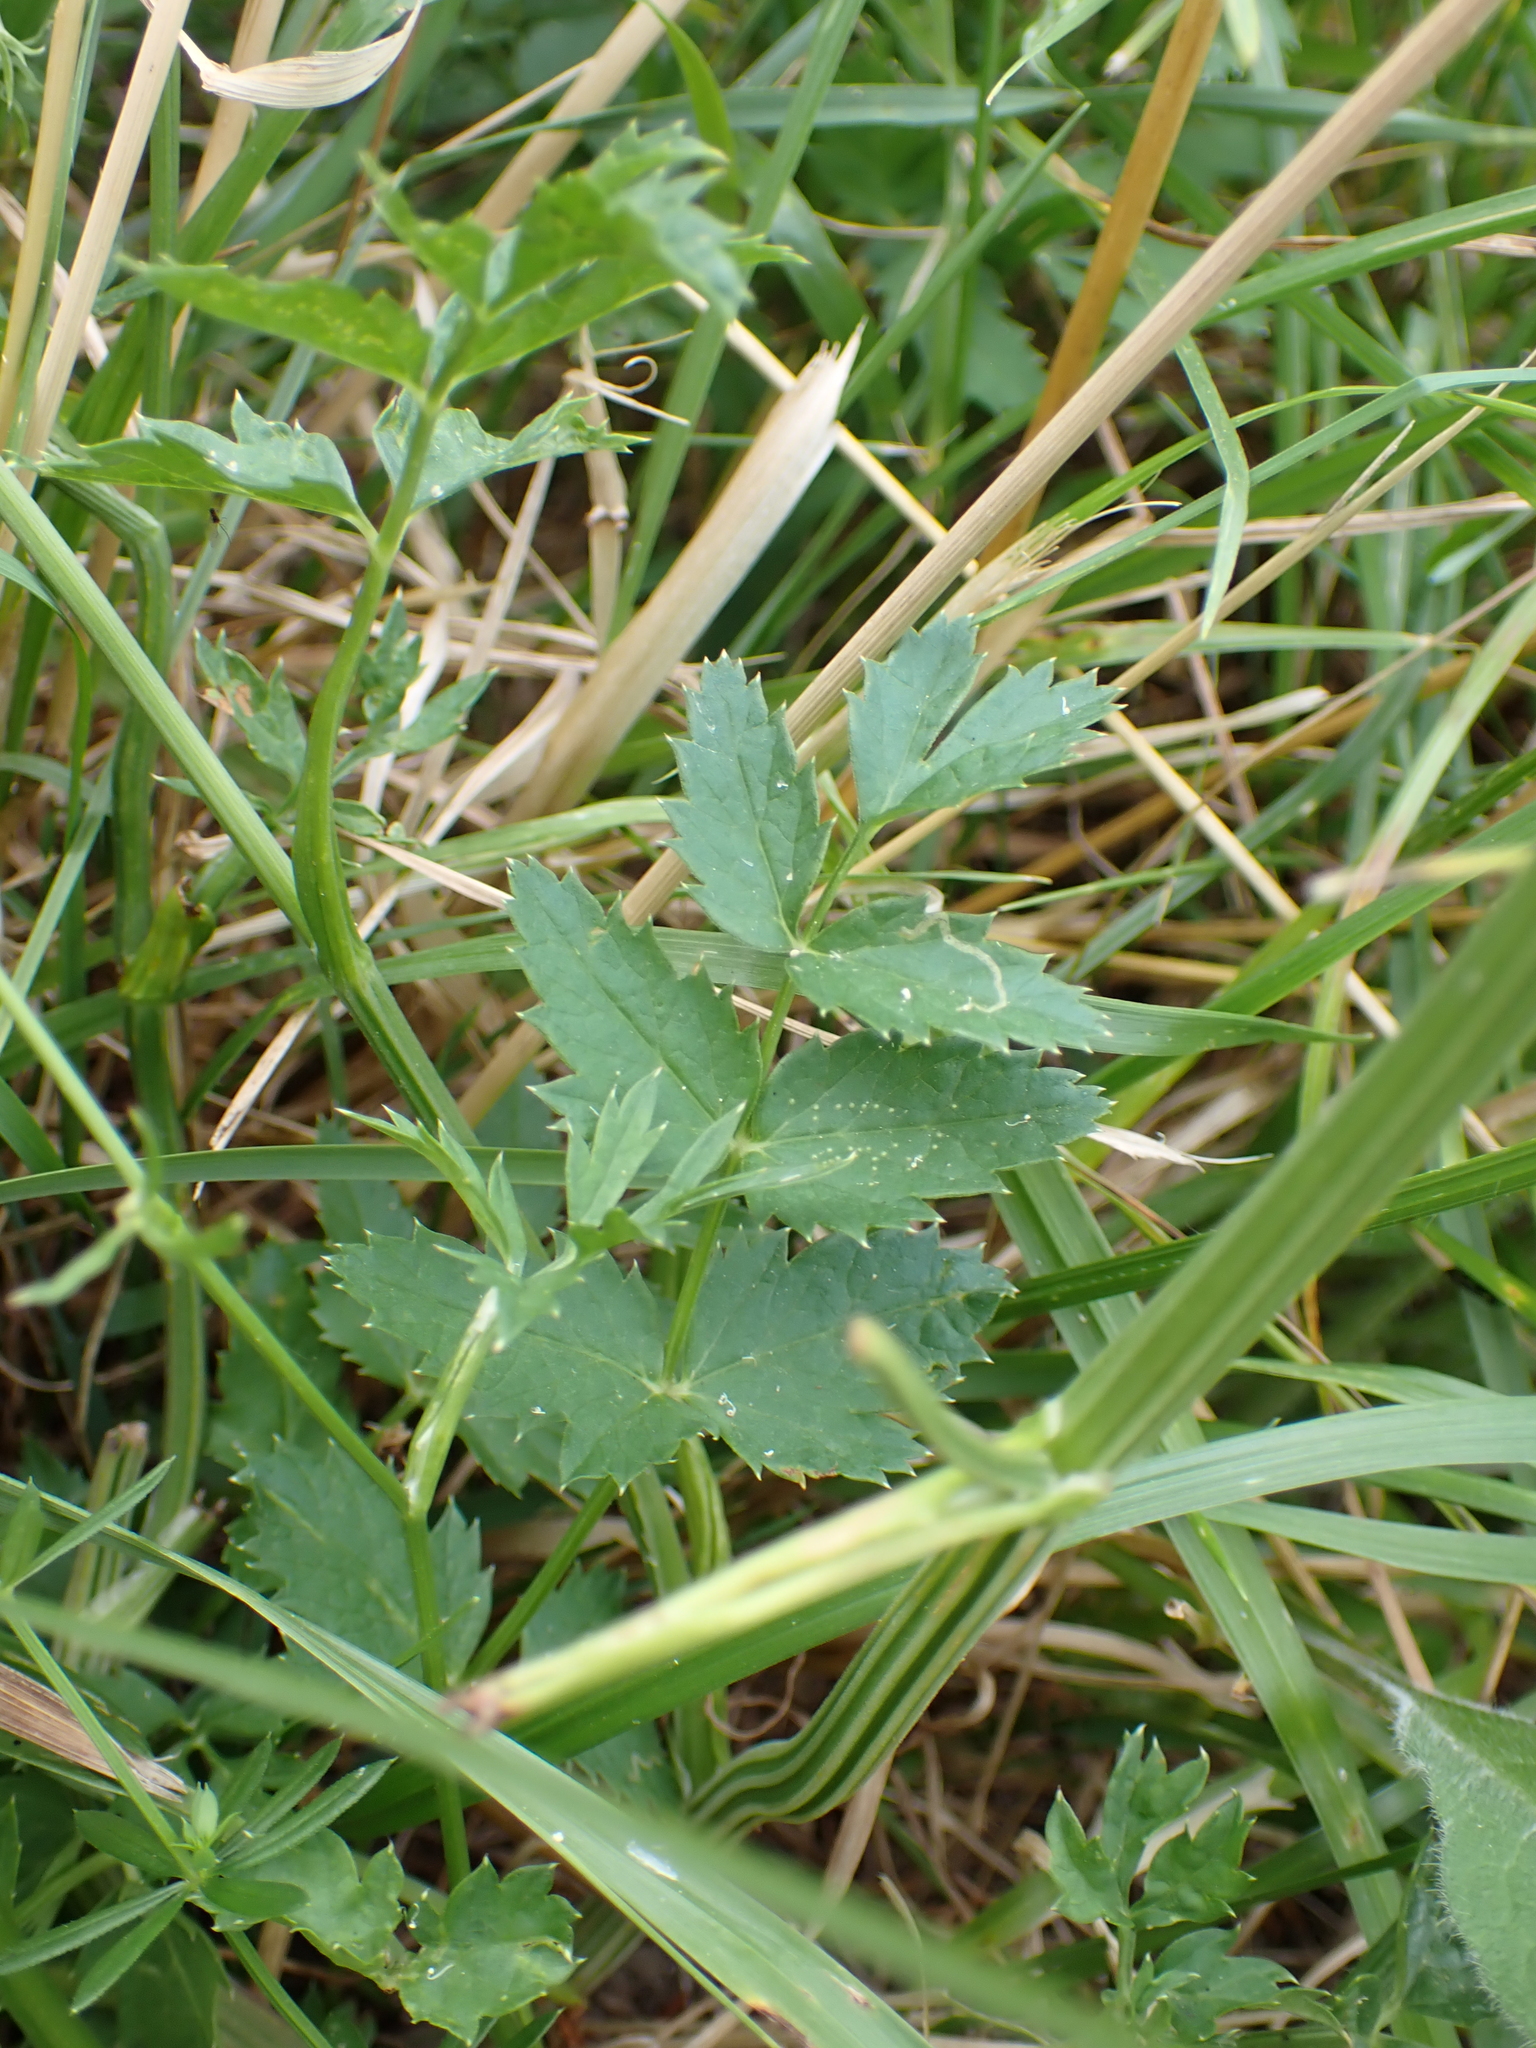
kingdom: Plantae
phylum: Tracheophyta
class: Magnoliopsida
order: Apiales
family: Apiaceae
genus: Pimpinella
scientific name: Pimpinella major
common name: Greater burnet-saxifrage
